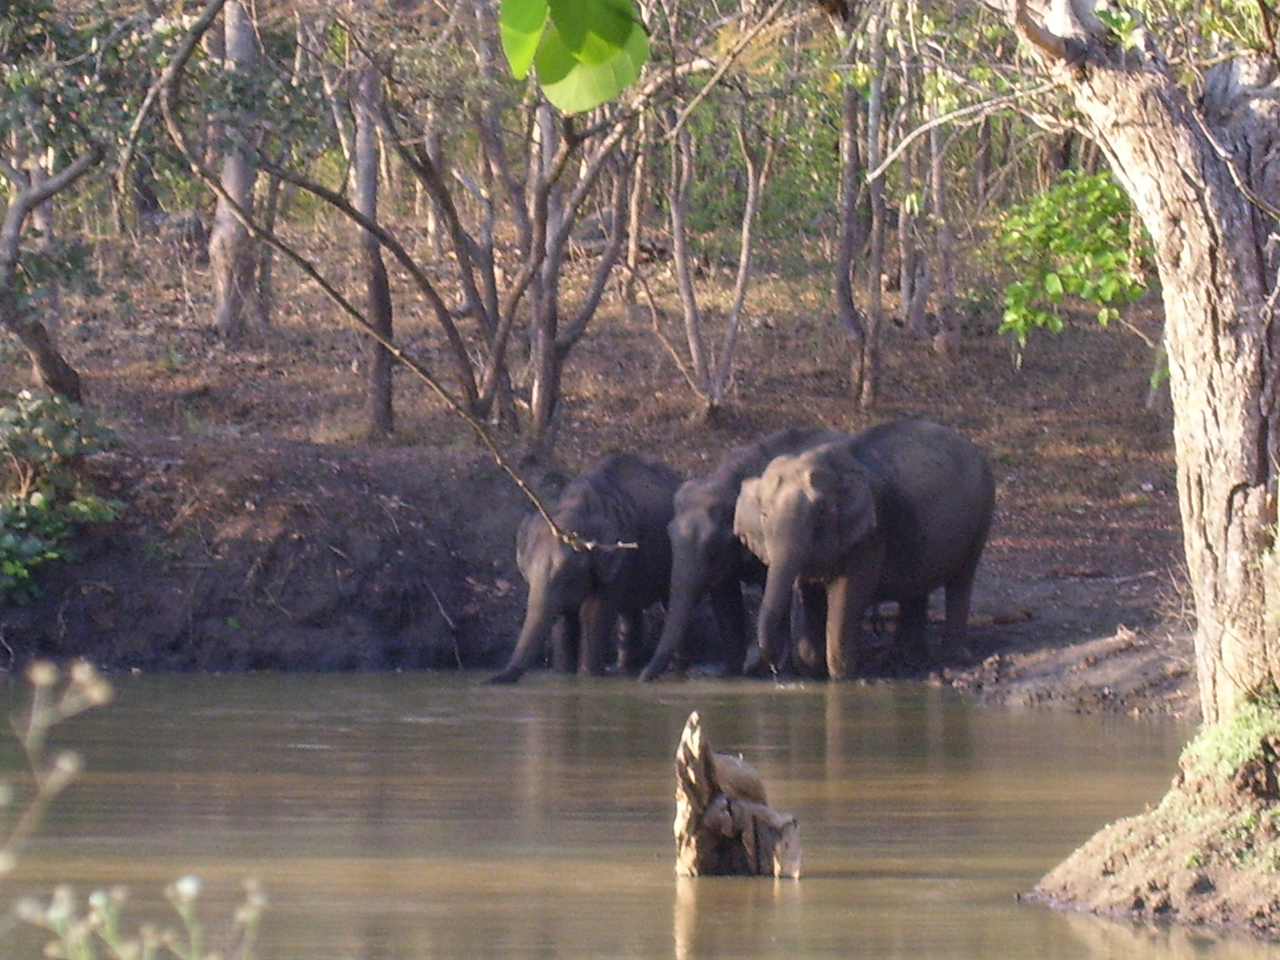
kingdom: Animalia
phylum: Chordata
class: Mammalia
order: Proboscidea
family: Elephantidae
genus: Elephas
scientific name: Elephas maximus
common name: Asian elephant
